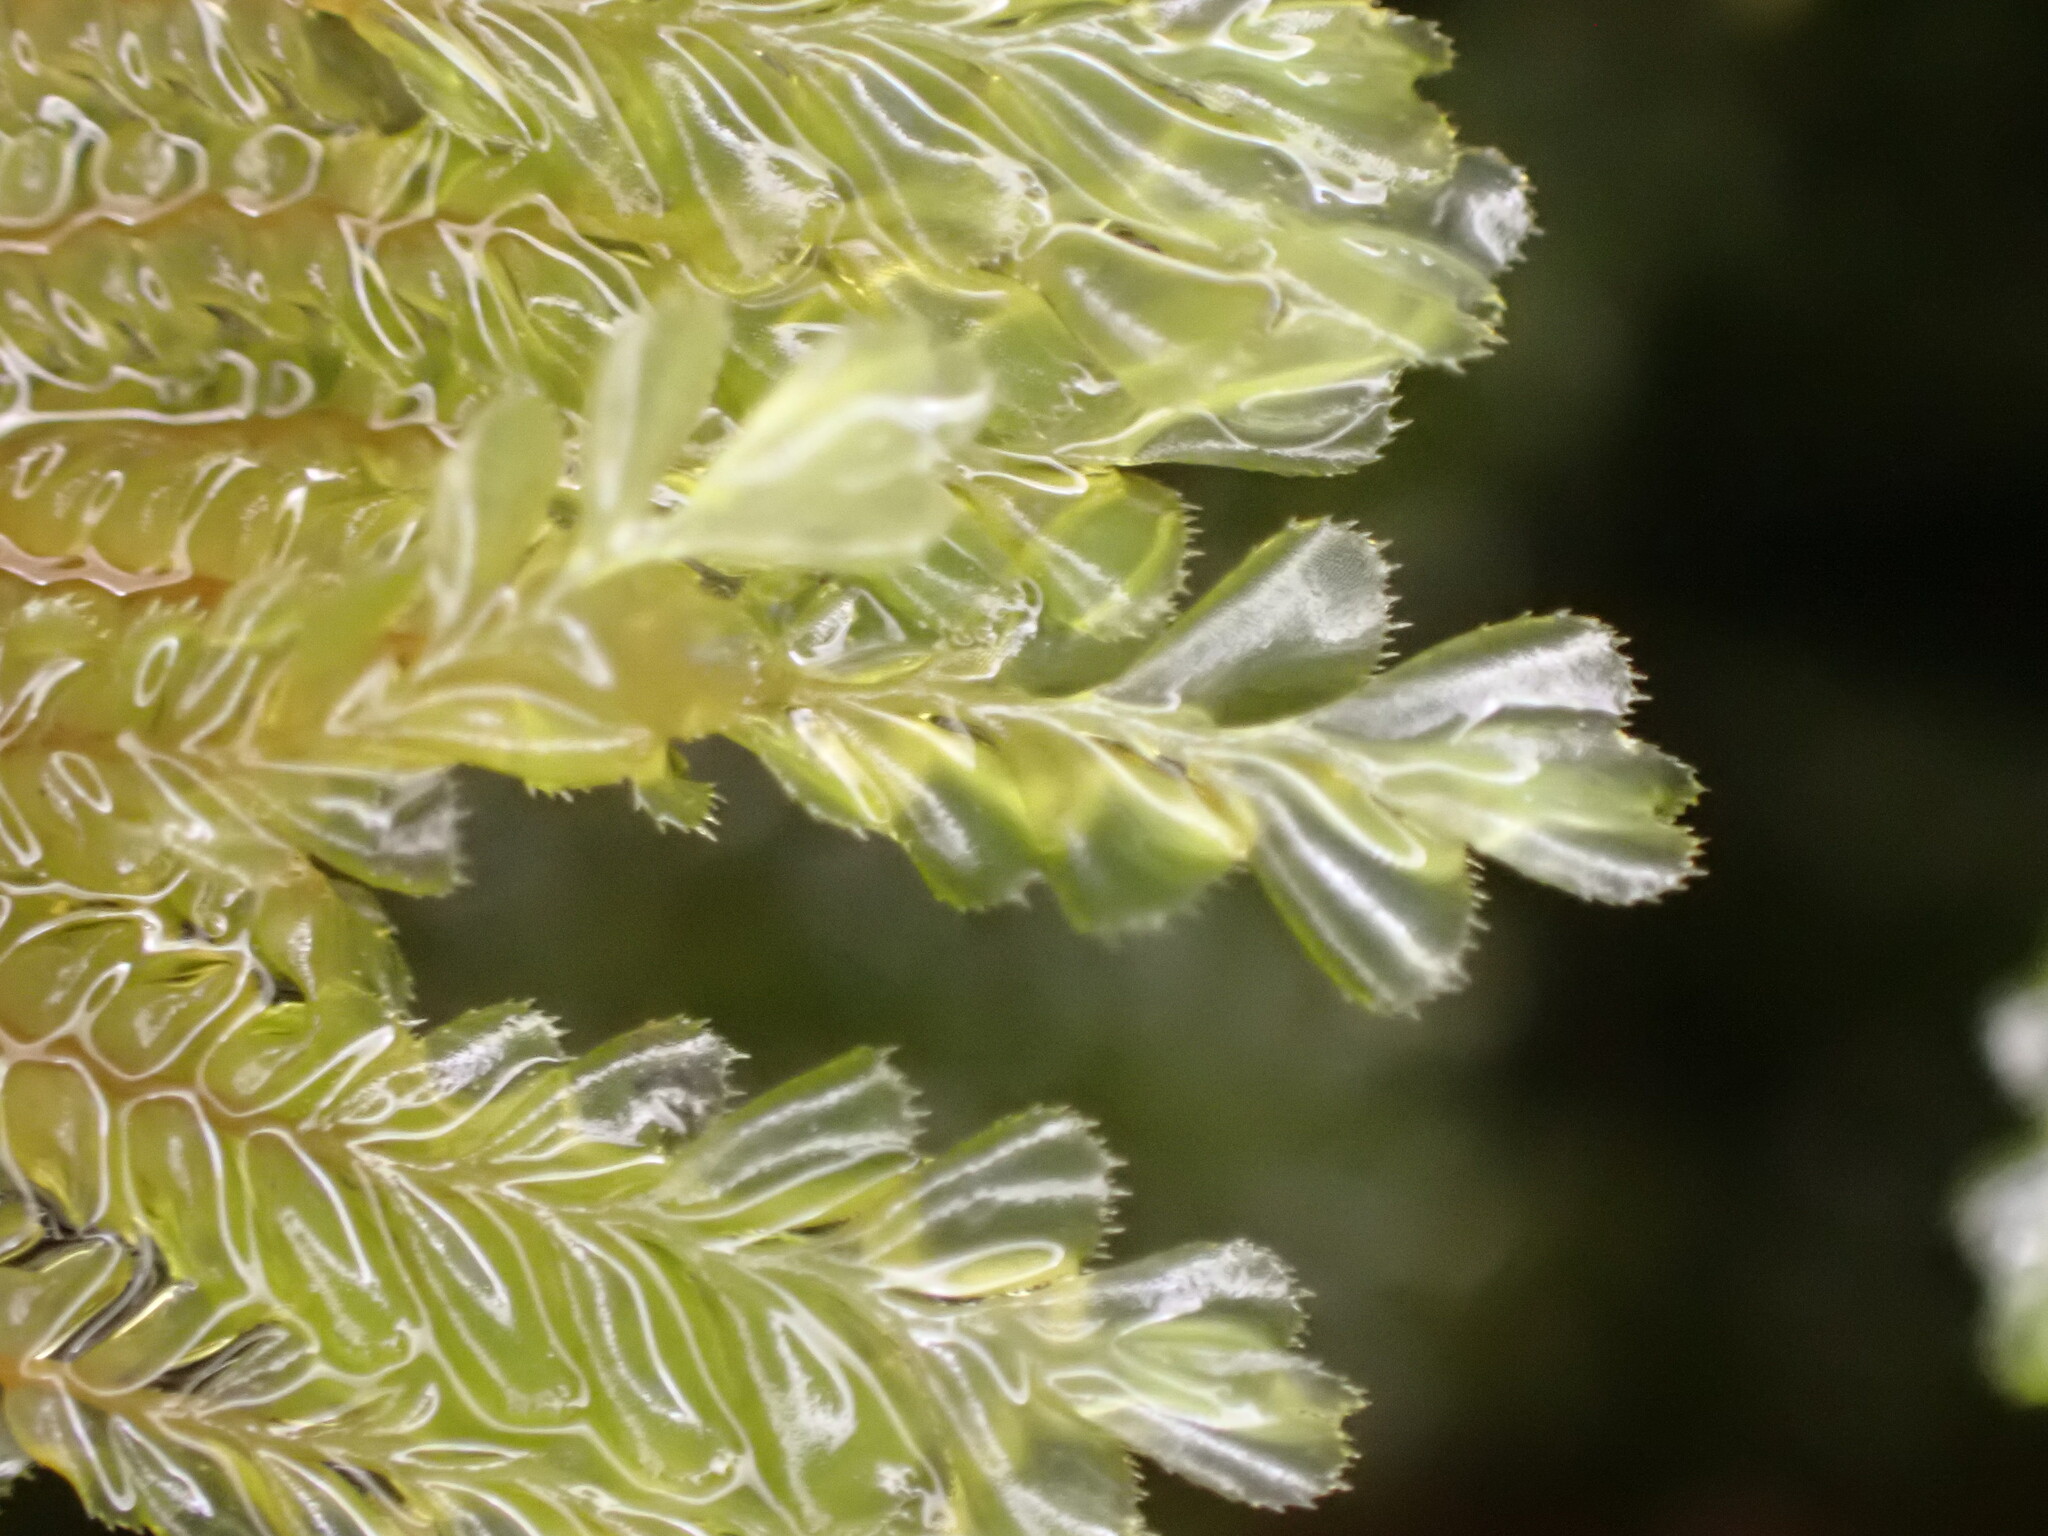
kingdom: Plantae
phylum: Marchantiophyta
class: Jungermanniopsida
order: Jungermanniales
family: Plagiochilaceae
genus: Plagiochila
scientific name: Plagiochila gigantea
